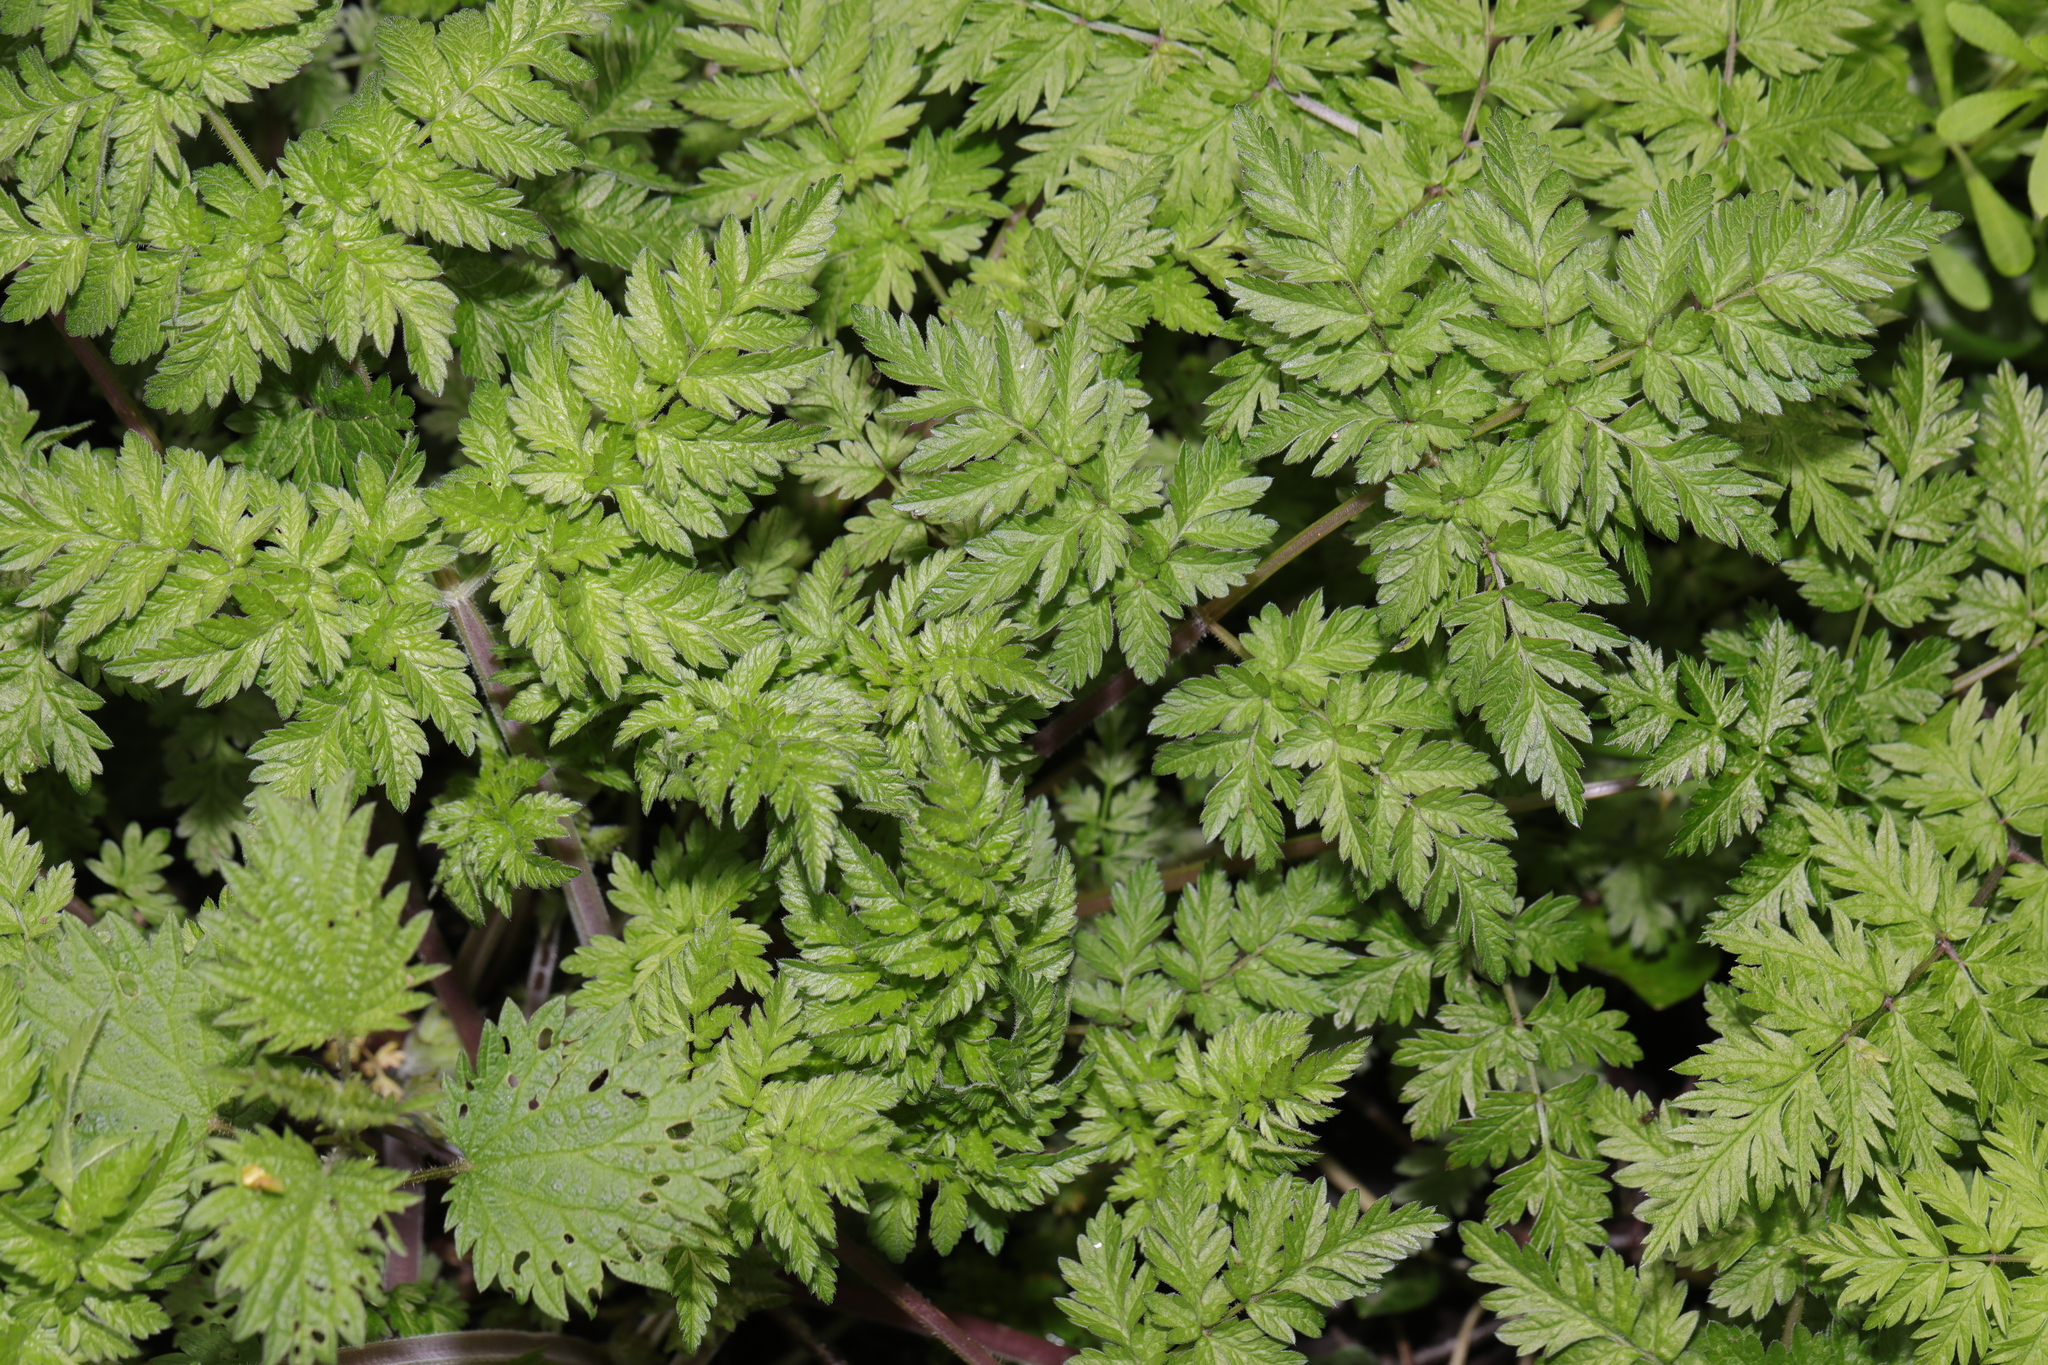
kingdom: Plantae
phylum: Tracheophyta
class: Magnoliopsida
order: Apiales
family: Apiaceae
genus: Anthriscus
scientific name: Anthriscus sylvestris
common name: Cow parsley
